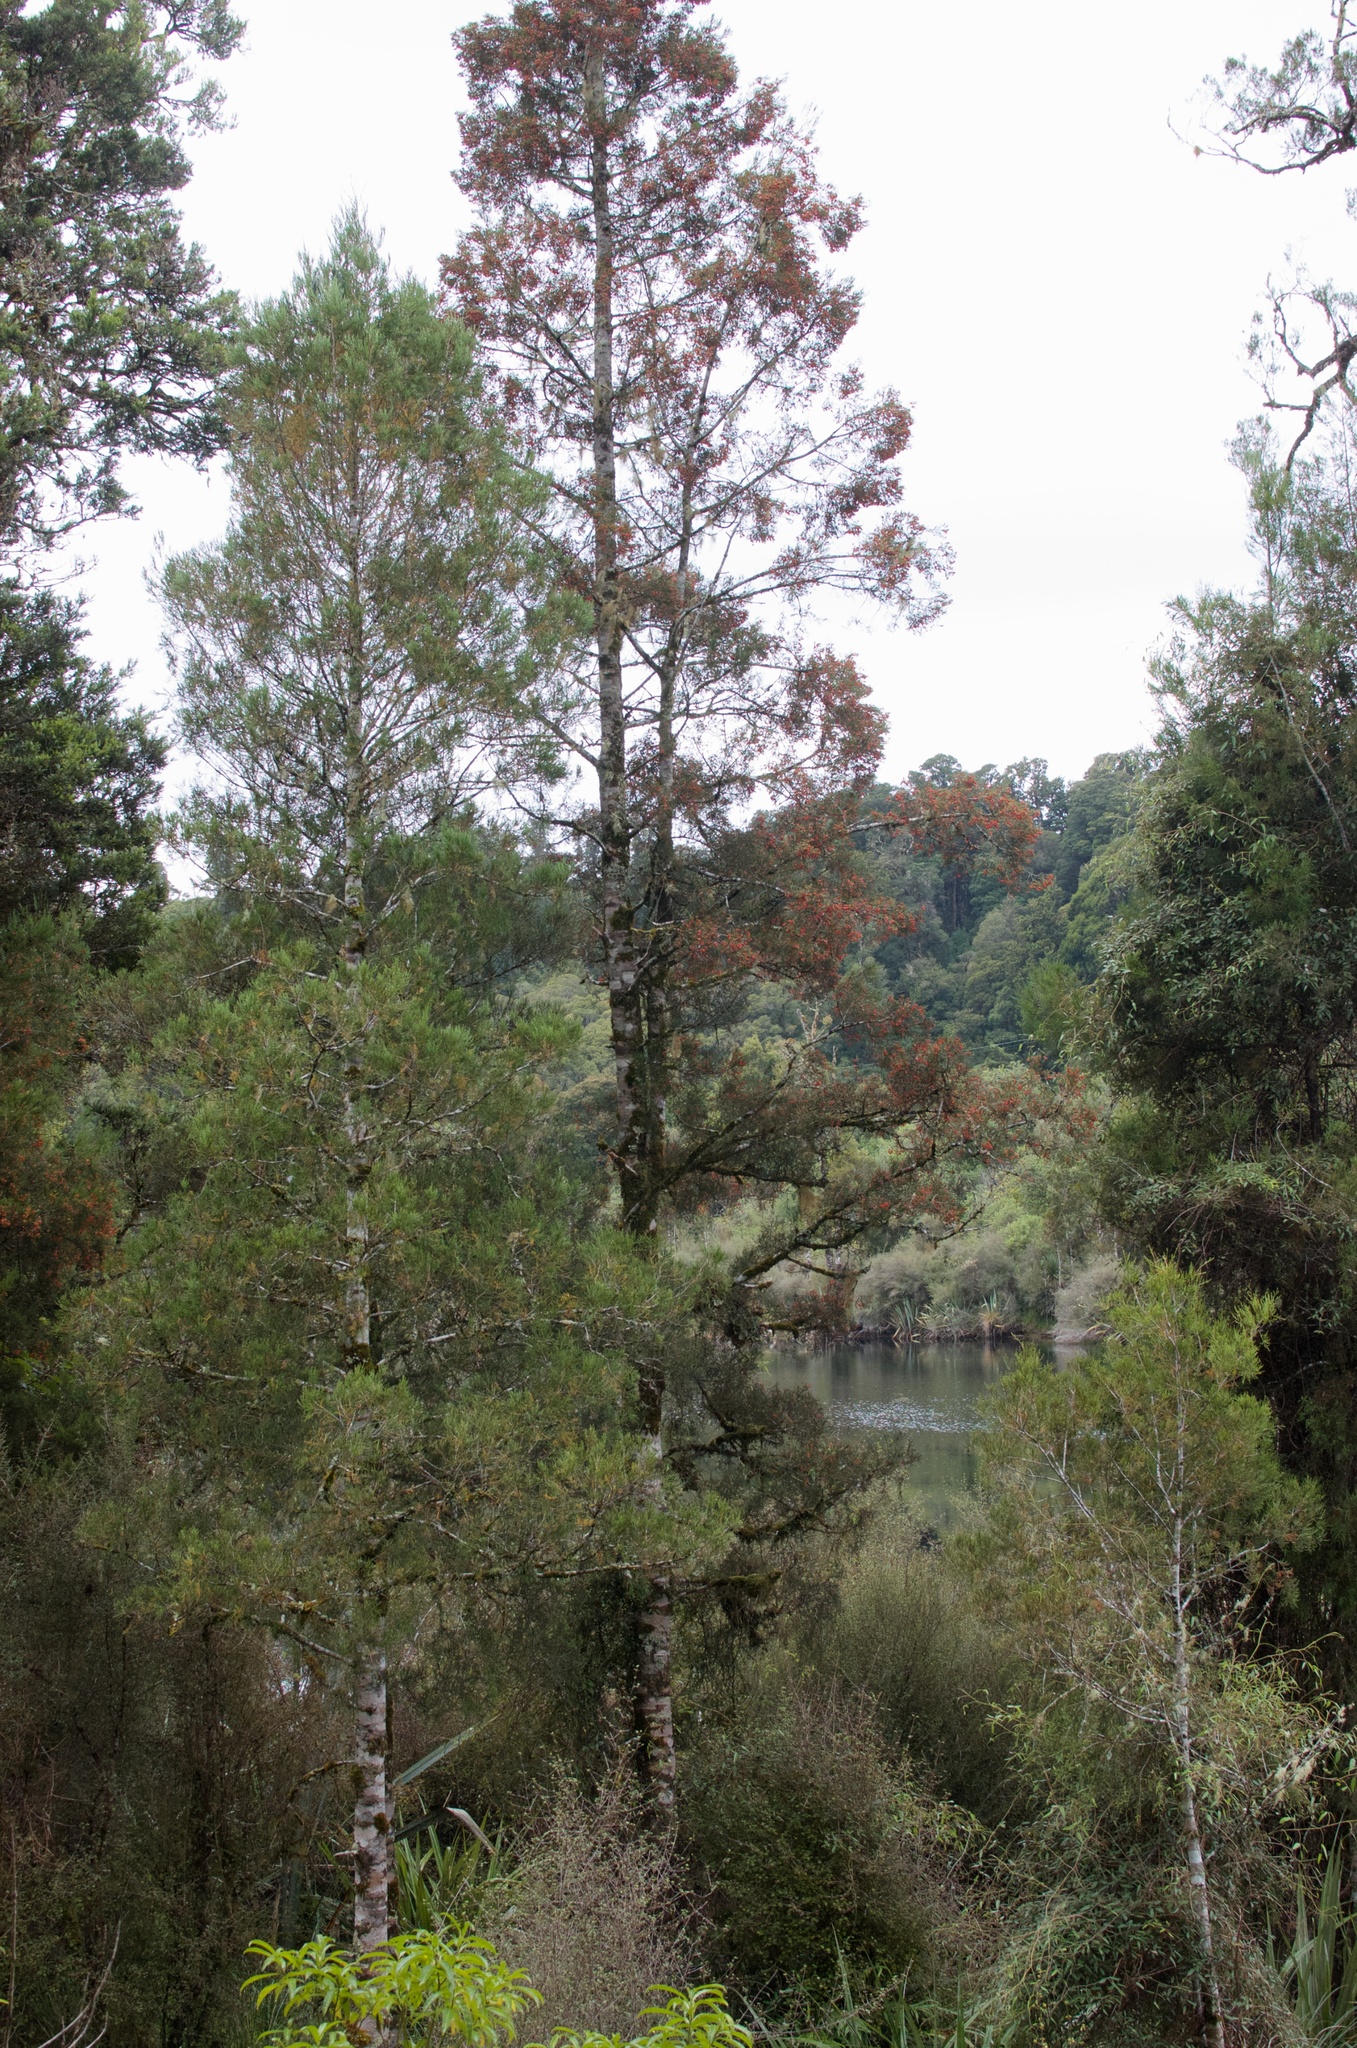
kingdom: Plantae
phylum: Tracheophyta
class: Pinopsida
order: Pinales
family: Podocarpaceae
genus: Dacrycarpus
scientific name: Dacrycarpus dacrydioides
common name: White pine
